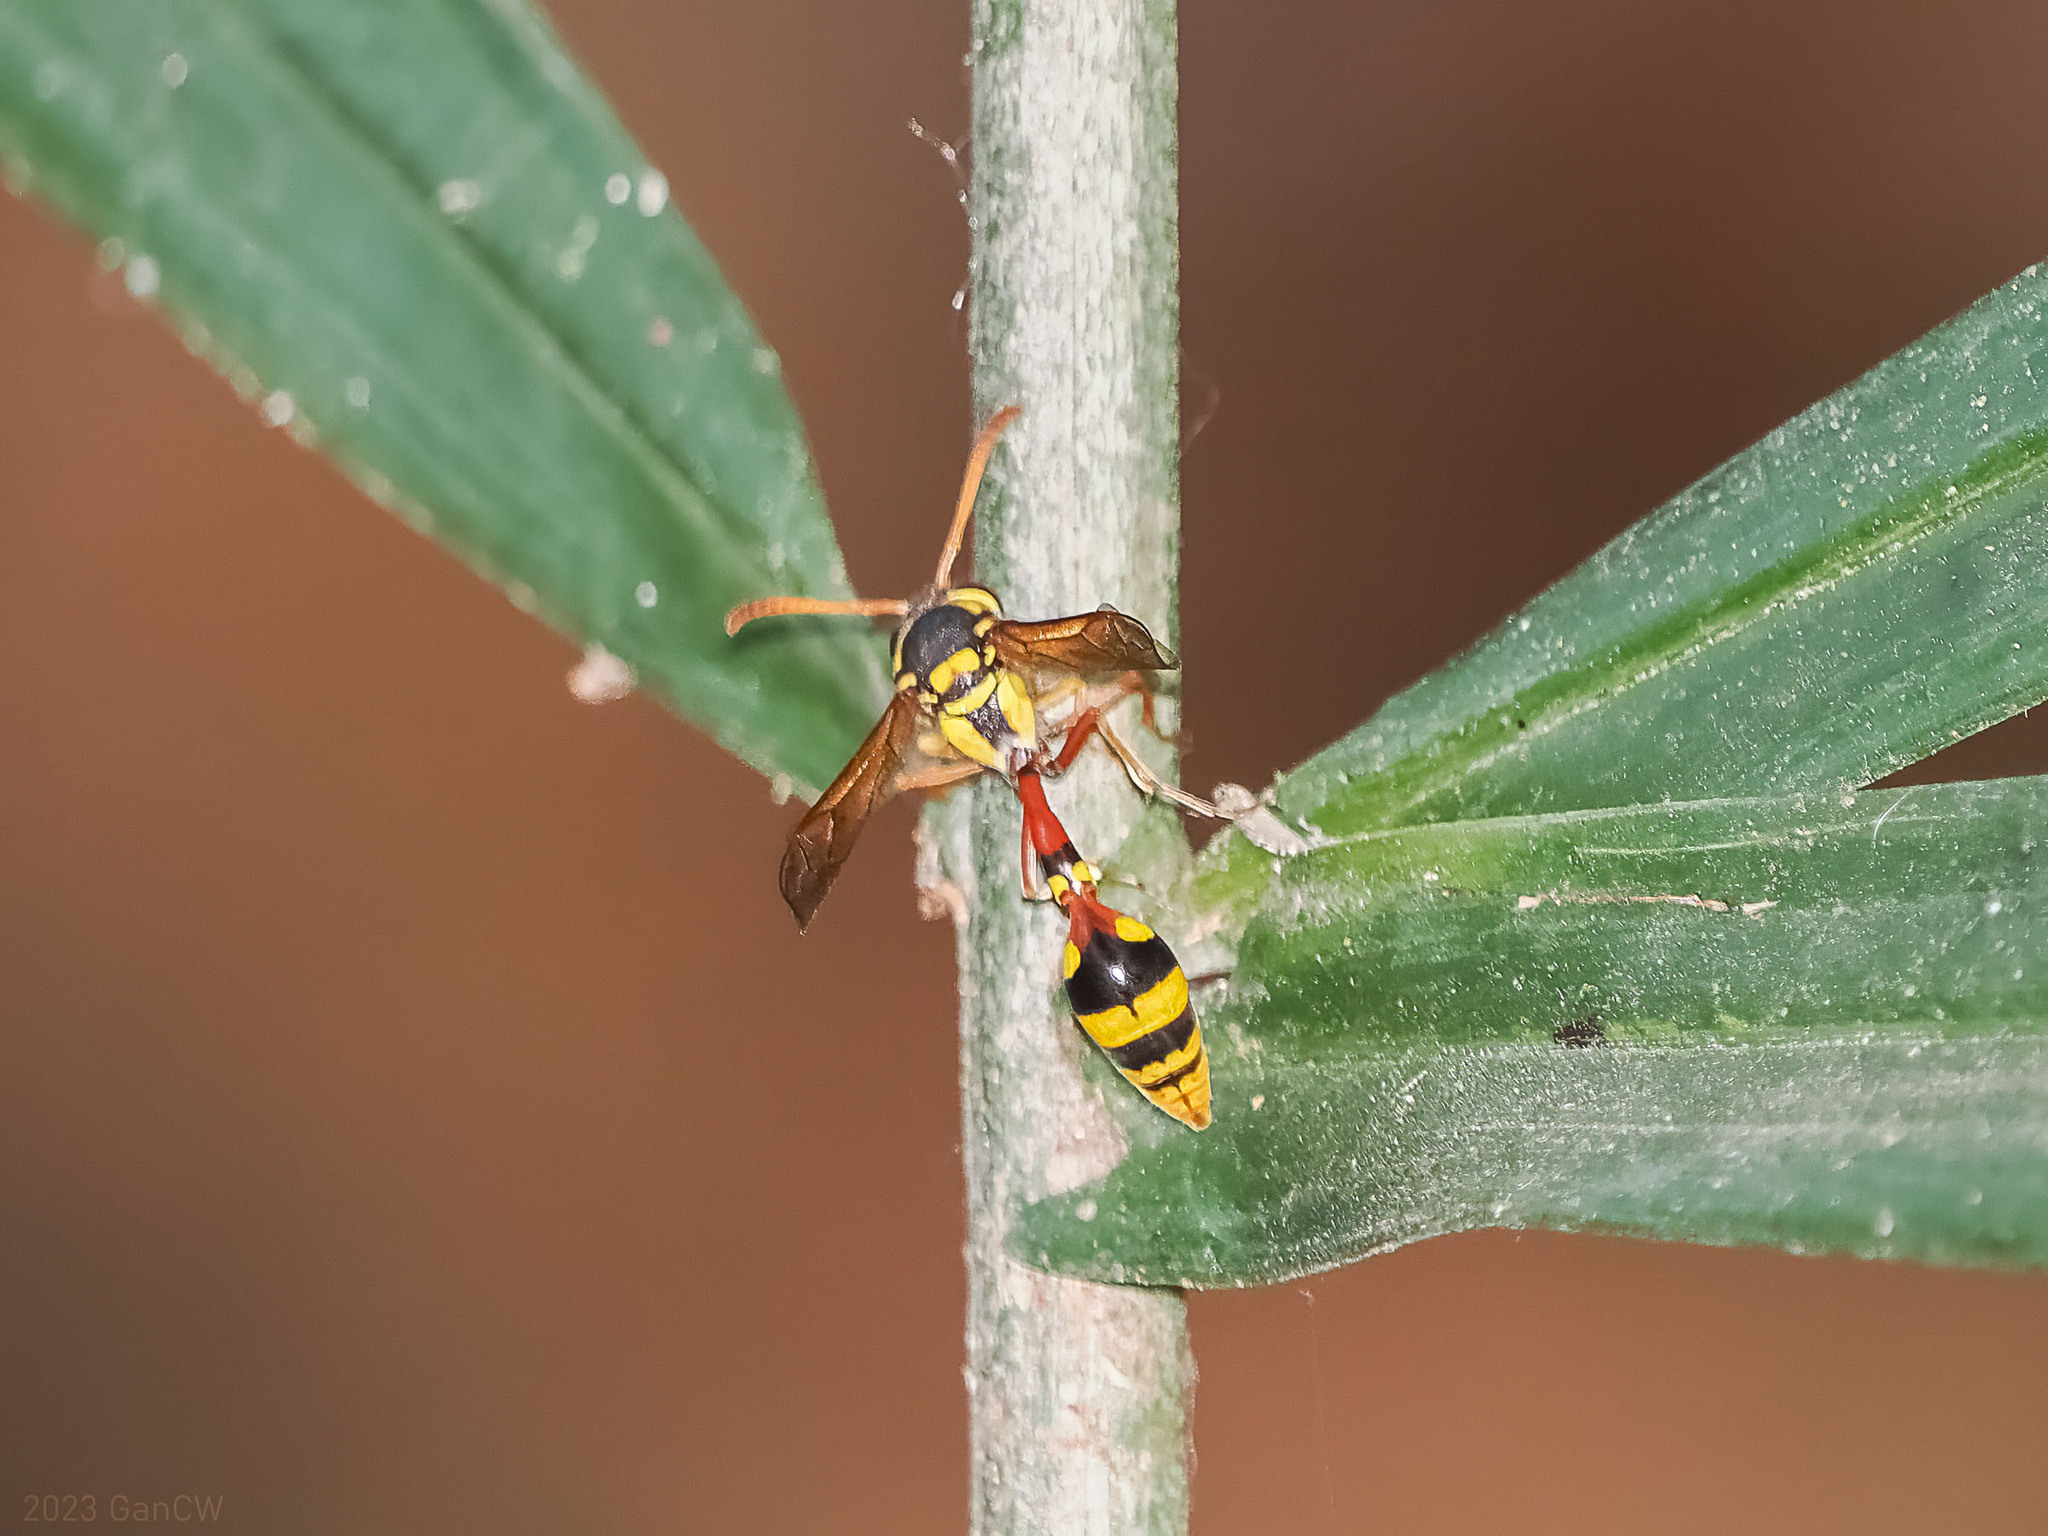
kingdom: Animalia
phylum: Arthropoda
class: Insecta
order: Hymenoptera
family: Eumenidae
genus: Delta
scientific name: Delta campaniforme
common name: Yellow and black potter wasp
